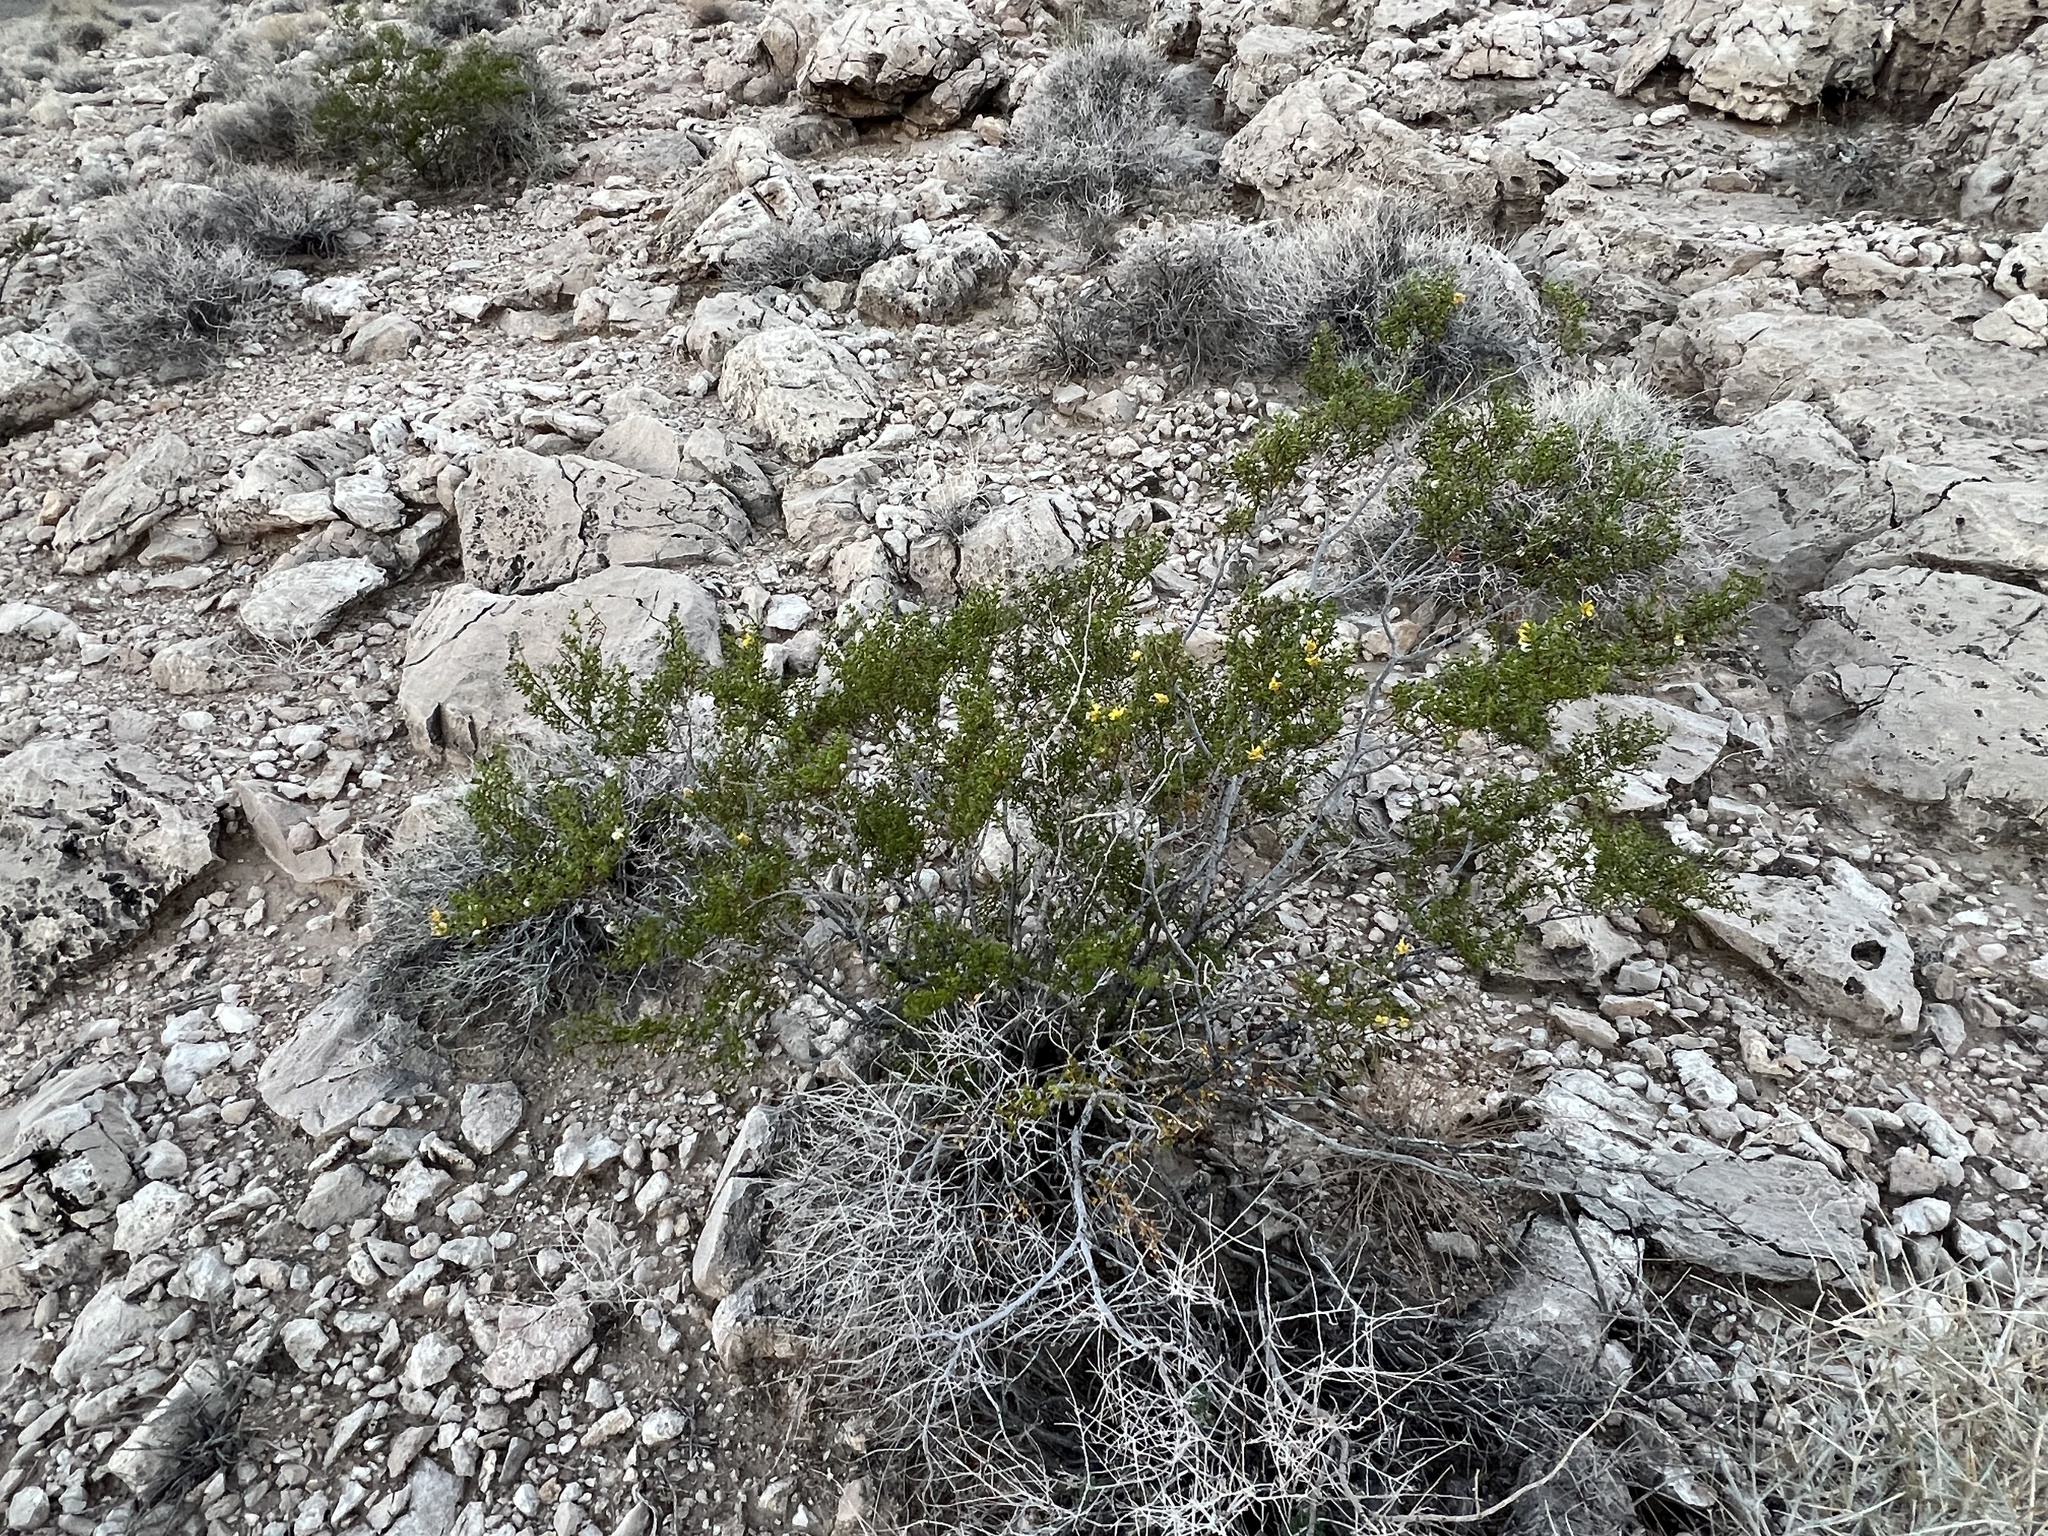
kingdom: Plantae
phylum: Tracheophyta
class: Magnoliopsida
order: Zygophyllales
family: Zygophyllaceae
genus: Larrea
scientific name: Larrea tridentata
